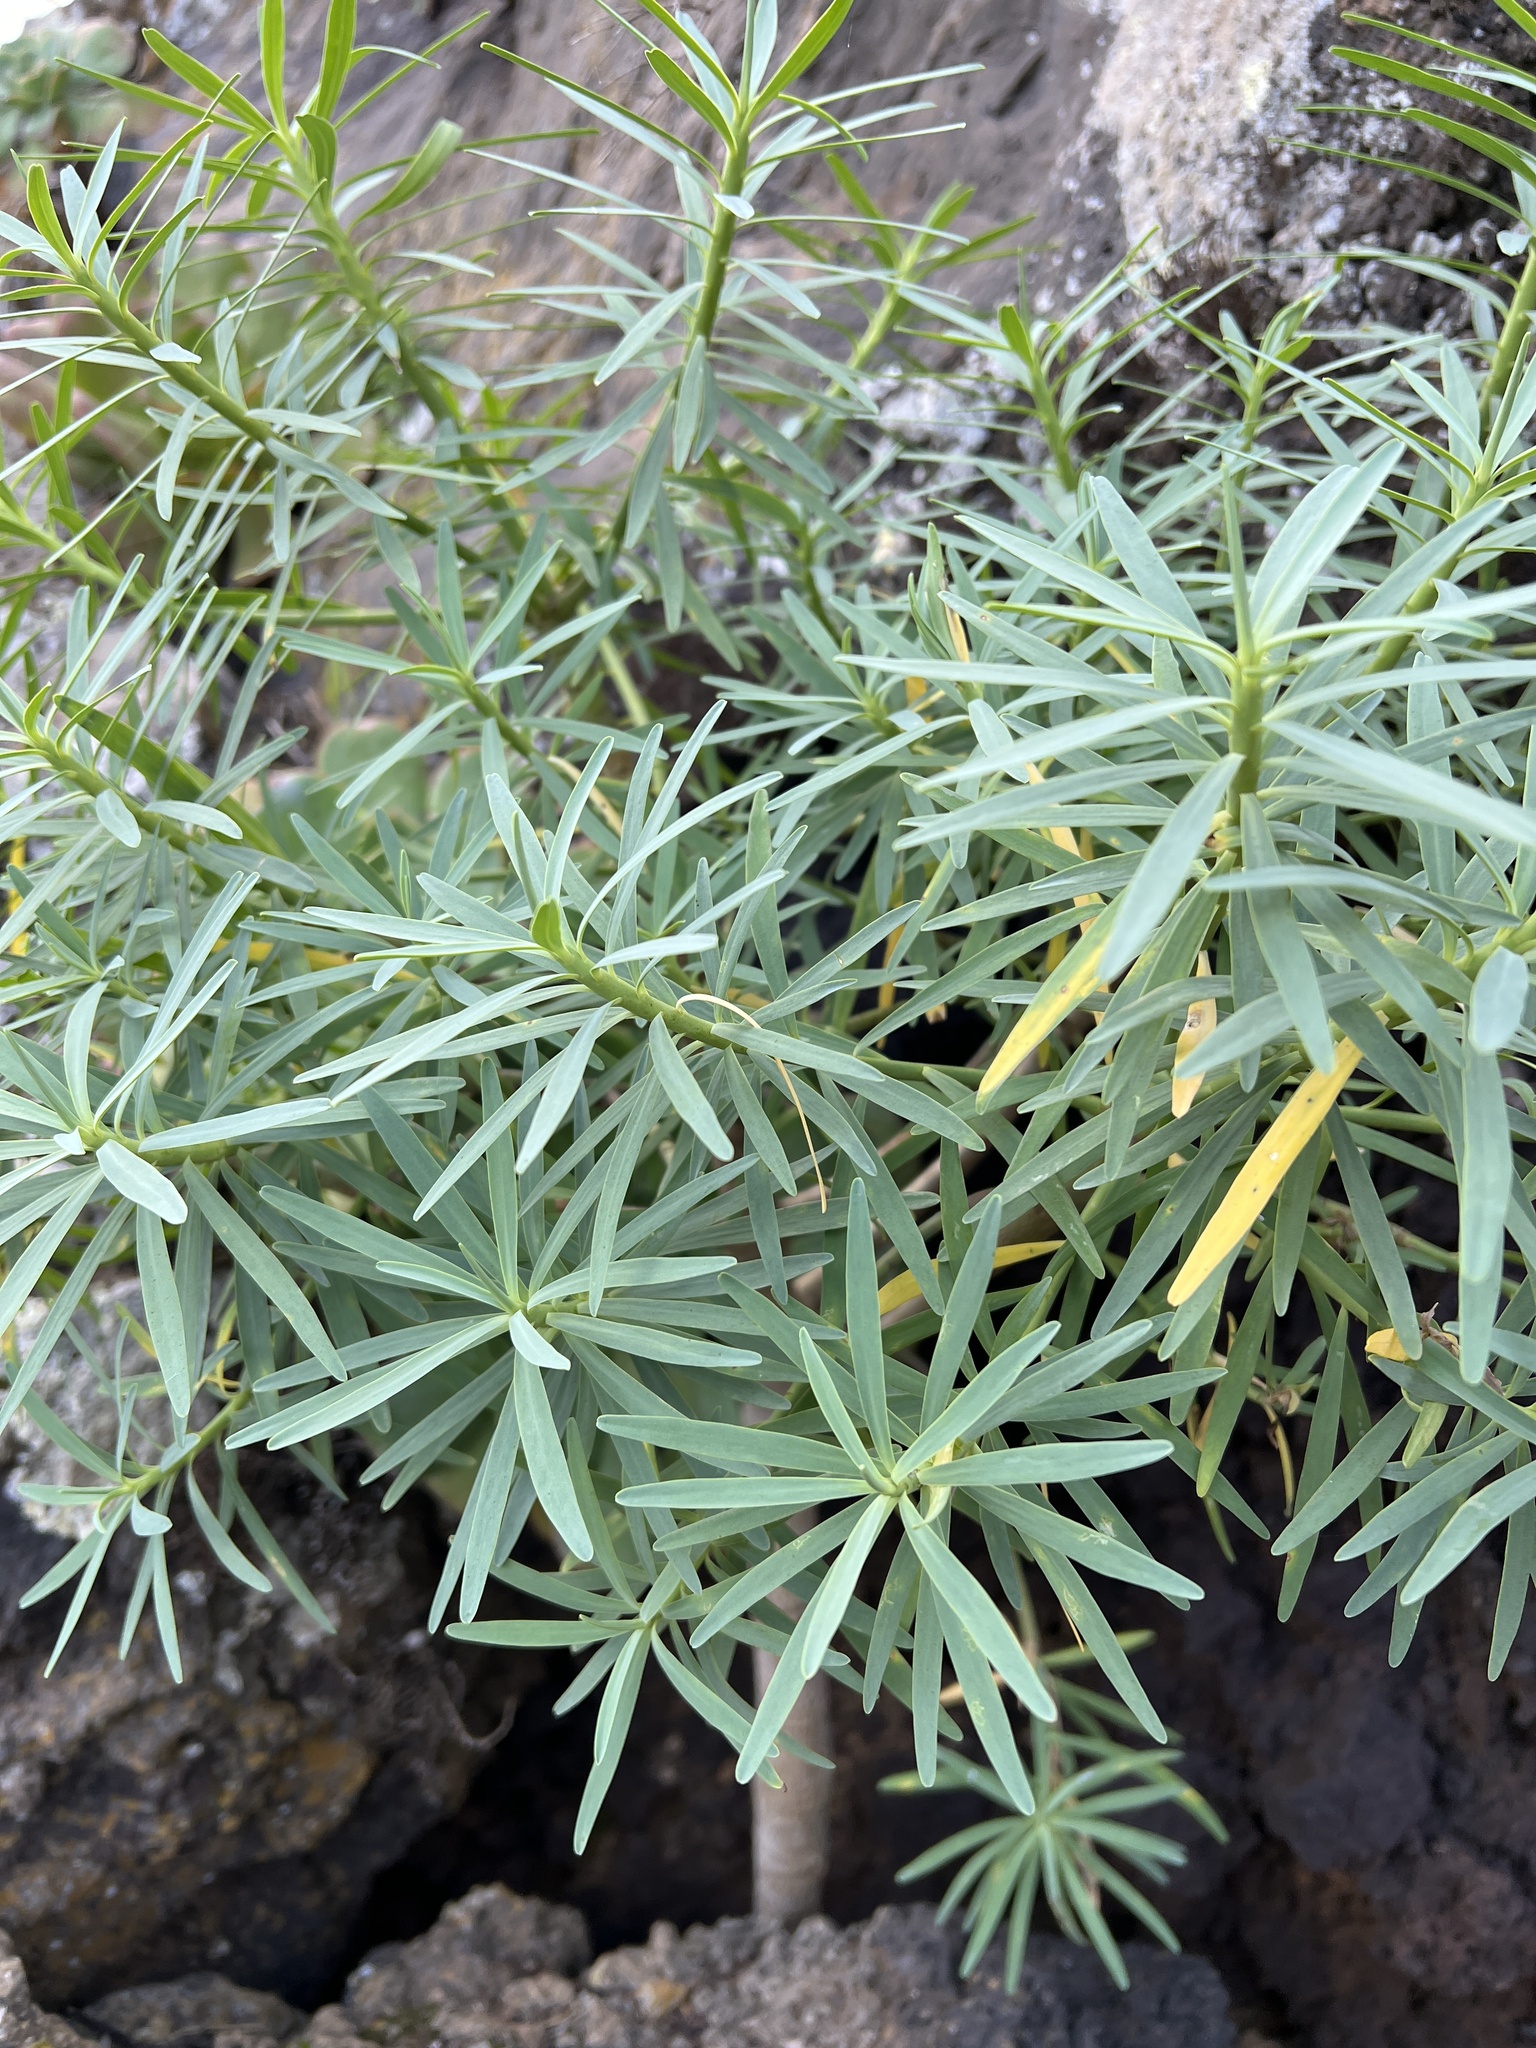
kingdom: Plantae
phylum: Tracheophyta
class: Magnoliopsida
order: Malpighiales
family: Euphorbiaceae
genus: Euphorbia
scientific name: Euphorbia lamarckii
